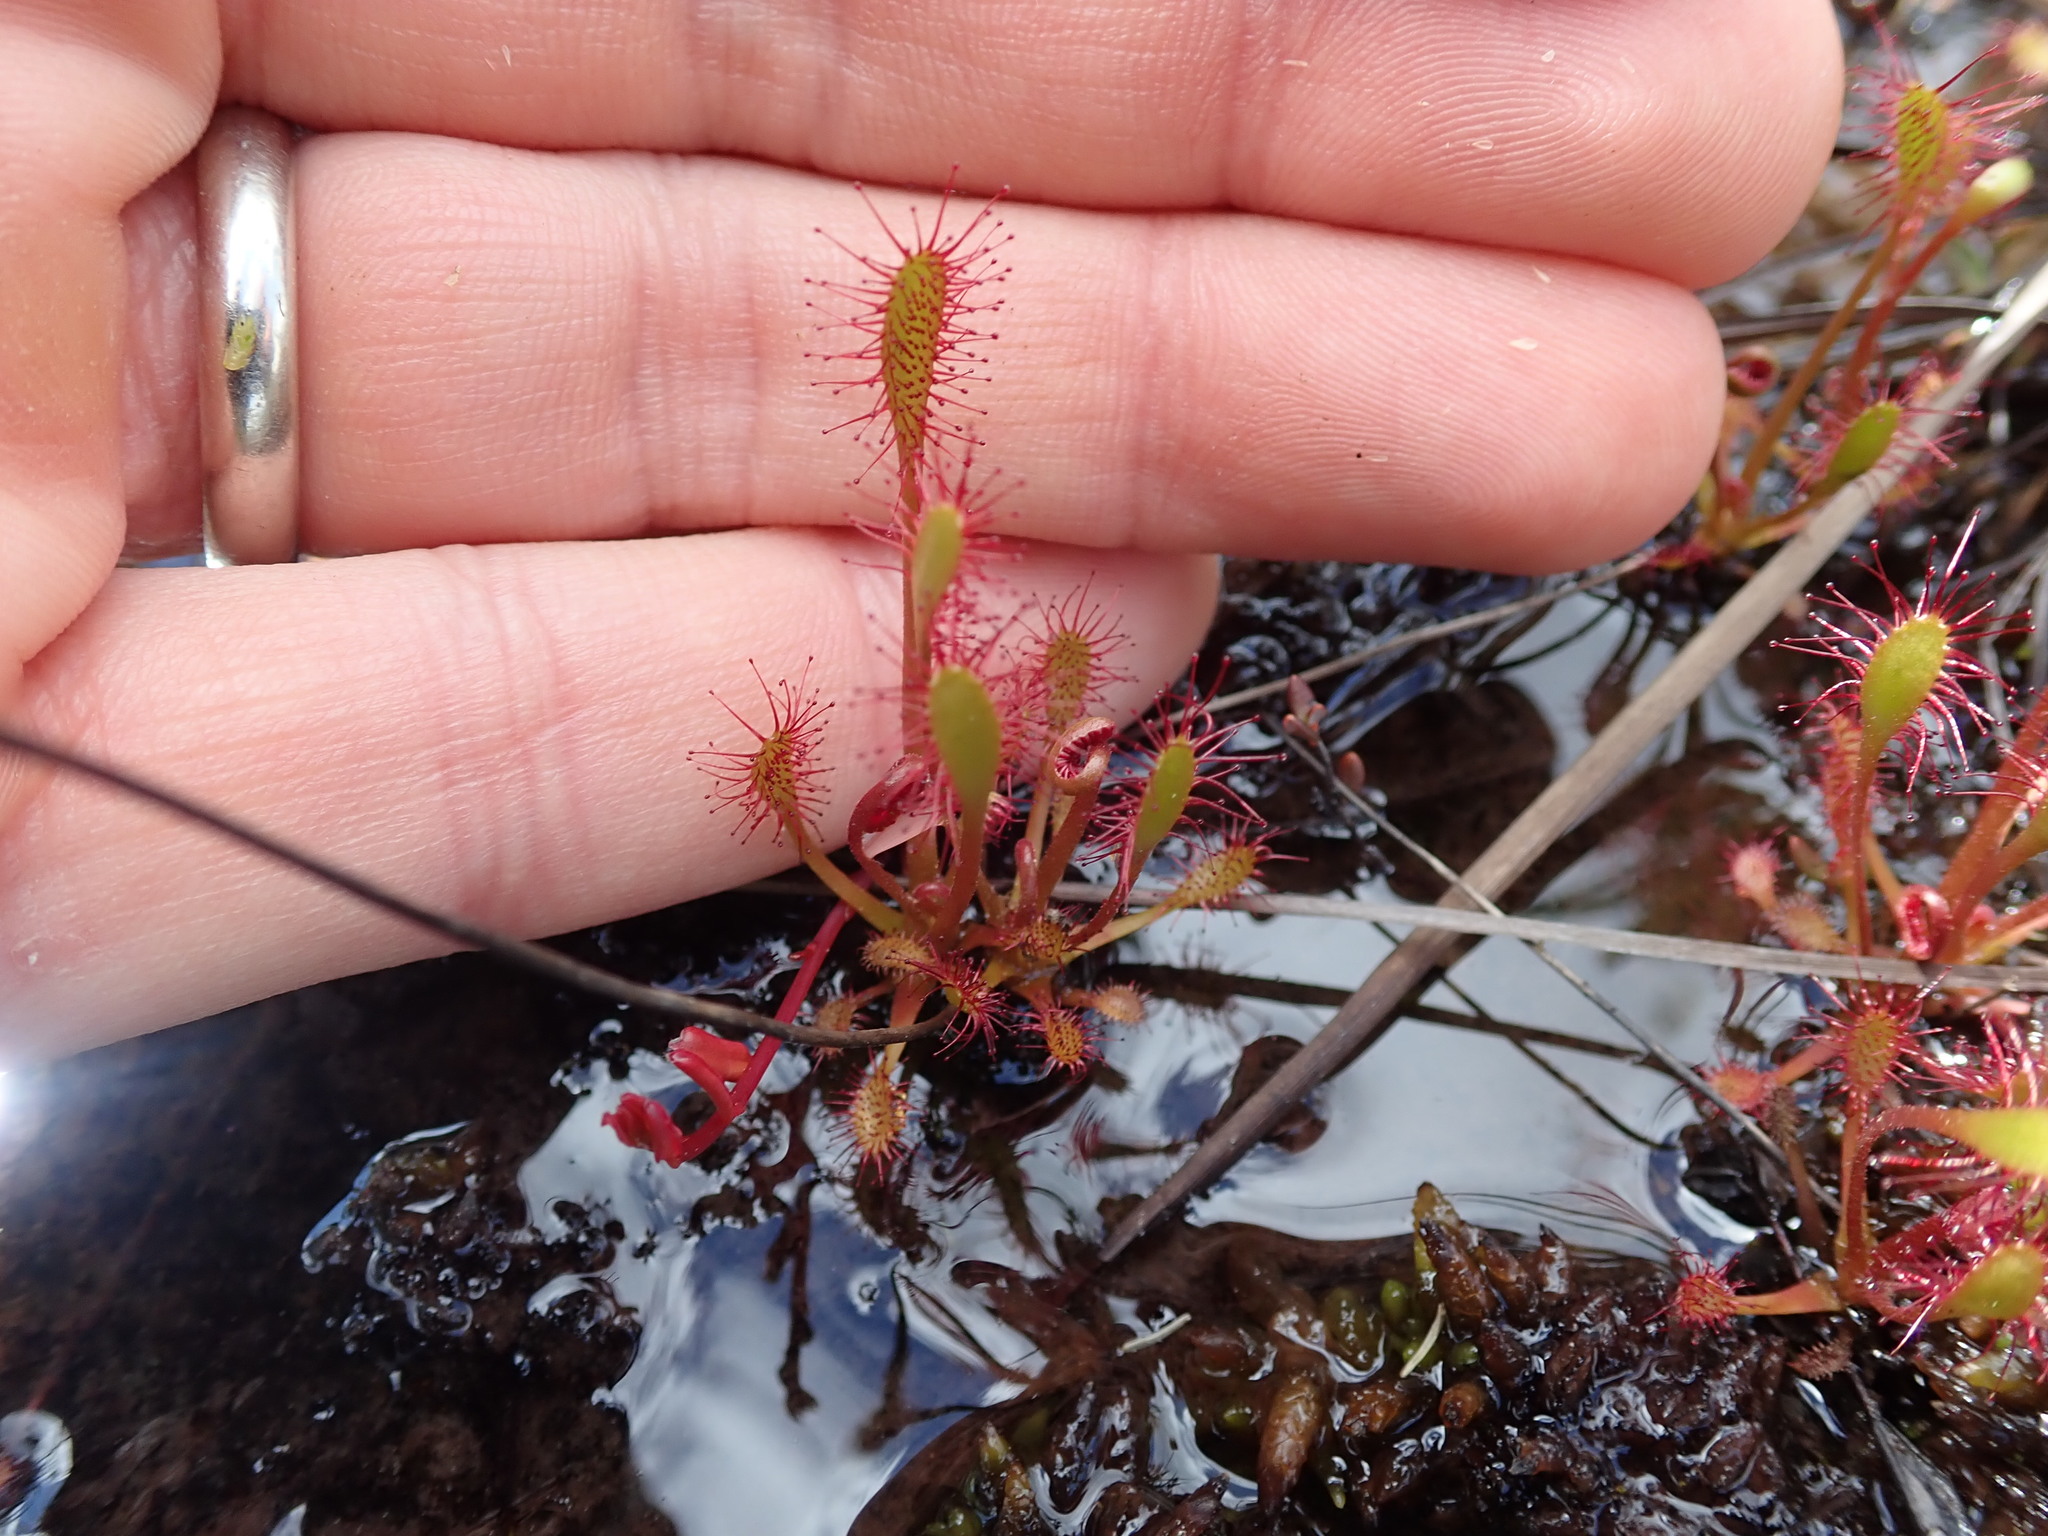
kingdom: Plantae
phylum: Tracheophyta
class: Magnoliopsida
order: Caryophyllales
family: Droseraceae
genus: Drosera
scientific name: Drosera anglica
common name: Great sundew
